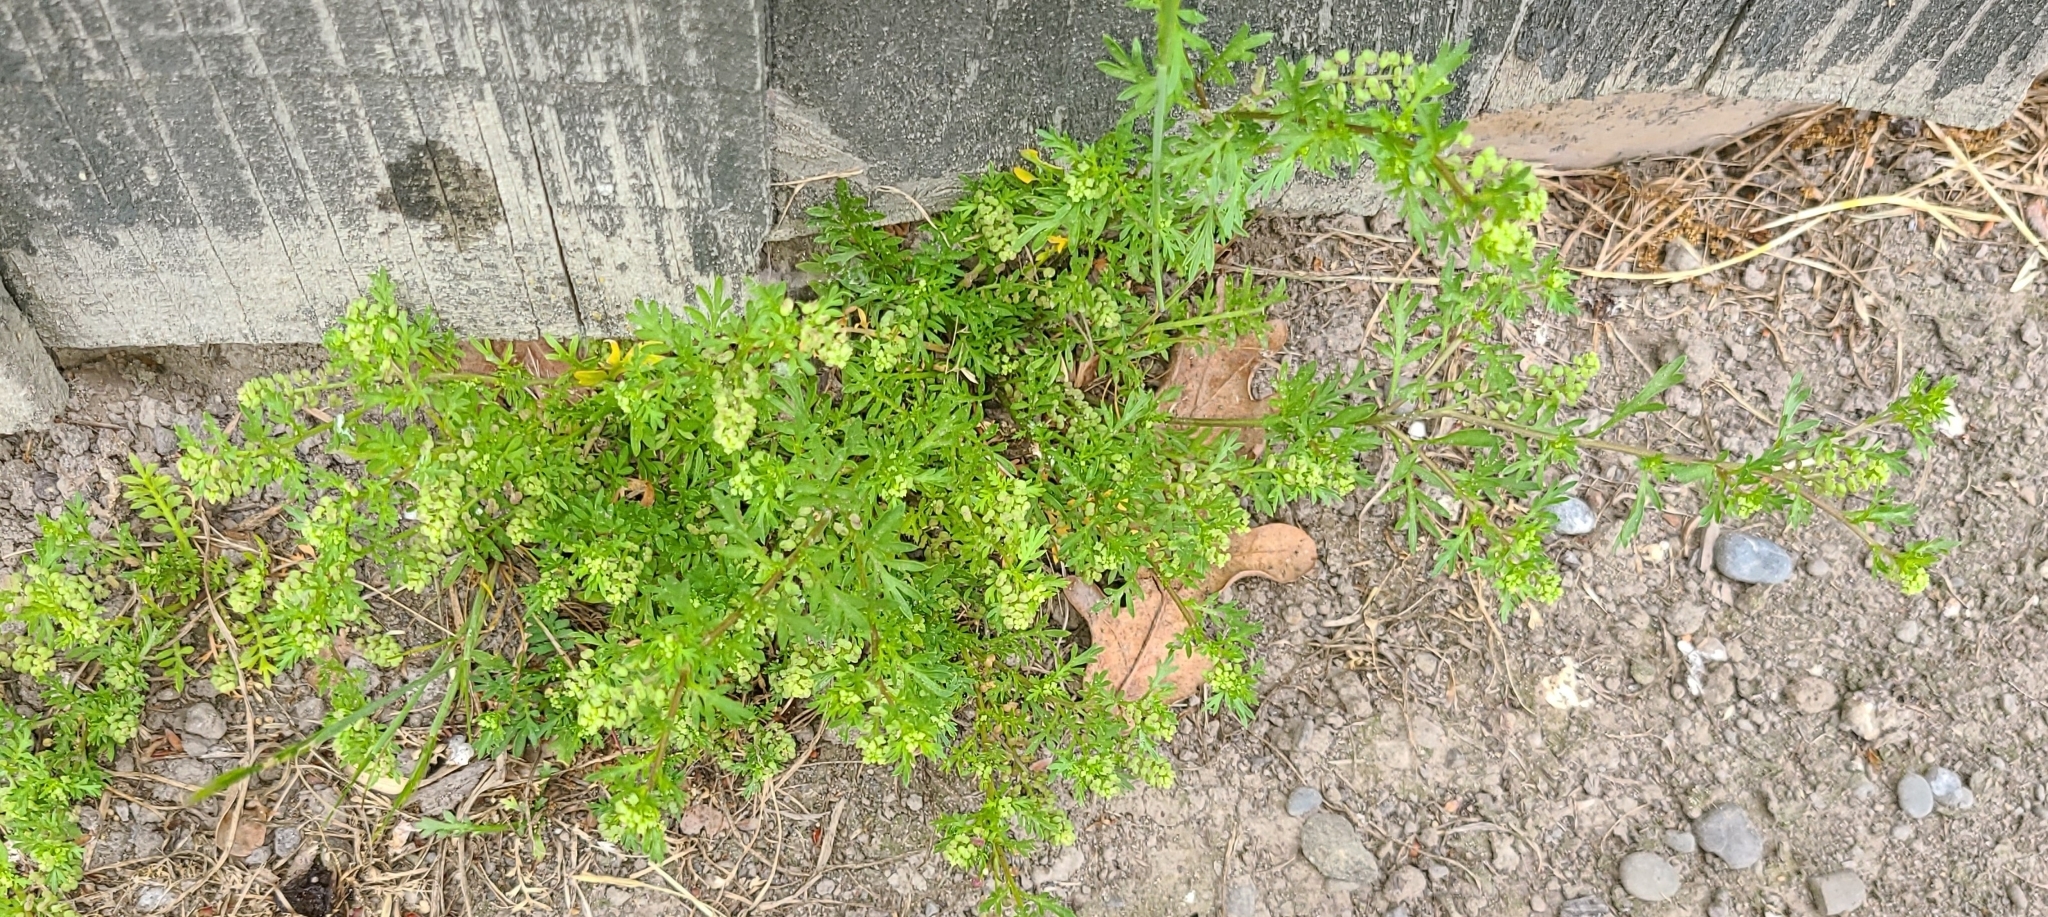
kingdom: Plantae
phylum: Tracheophyta
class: Magnoliopsida
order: Brassicales
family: Brassicaceae
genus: Lepidium
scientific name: Lepidium didymum
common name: Lesser swinecress
